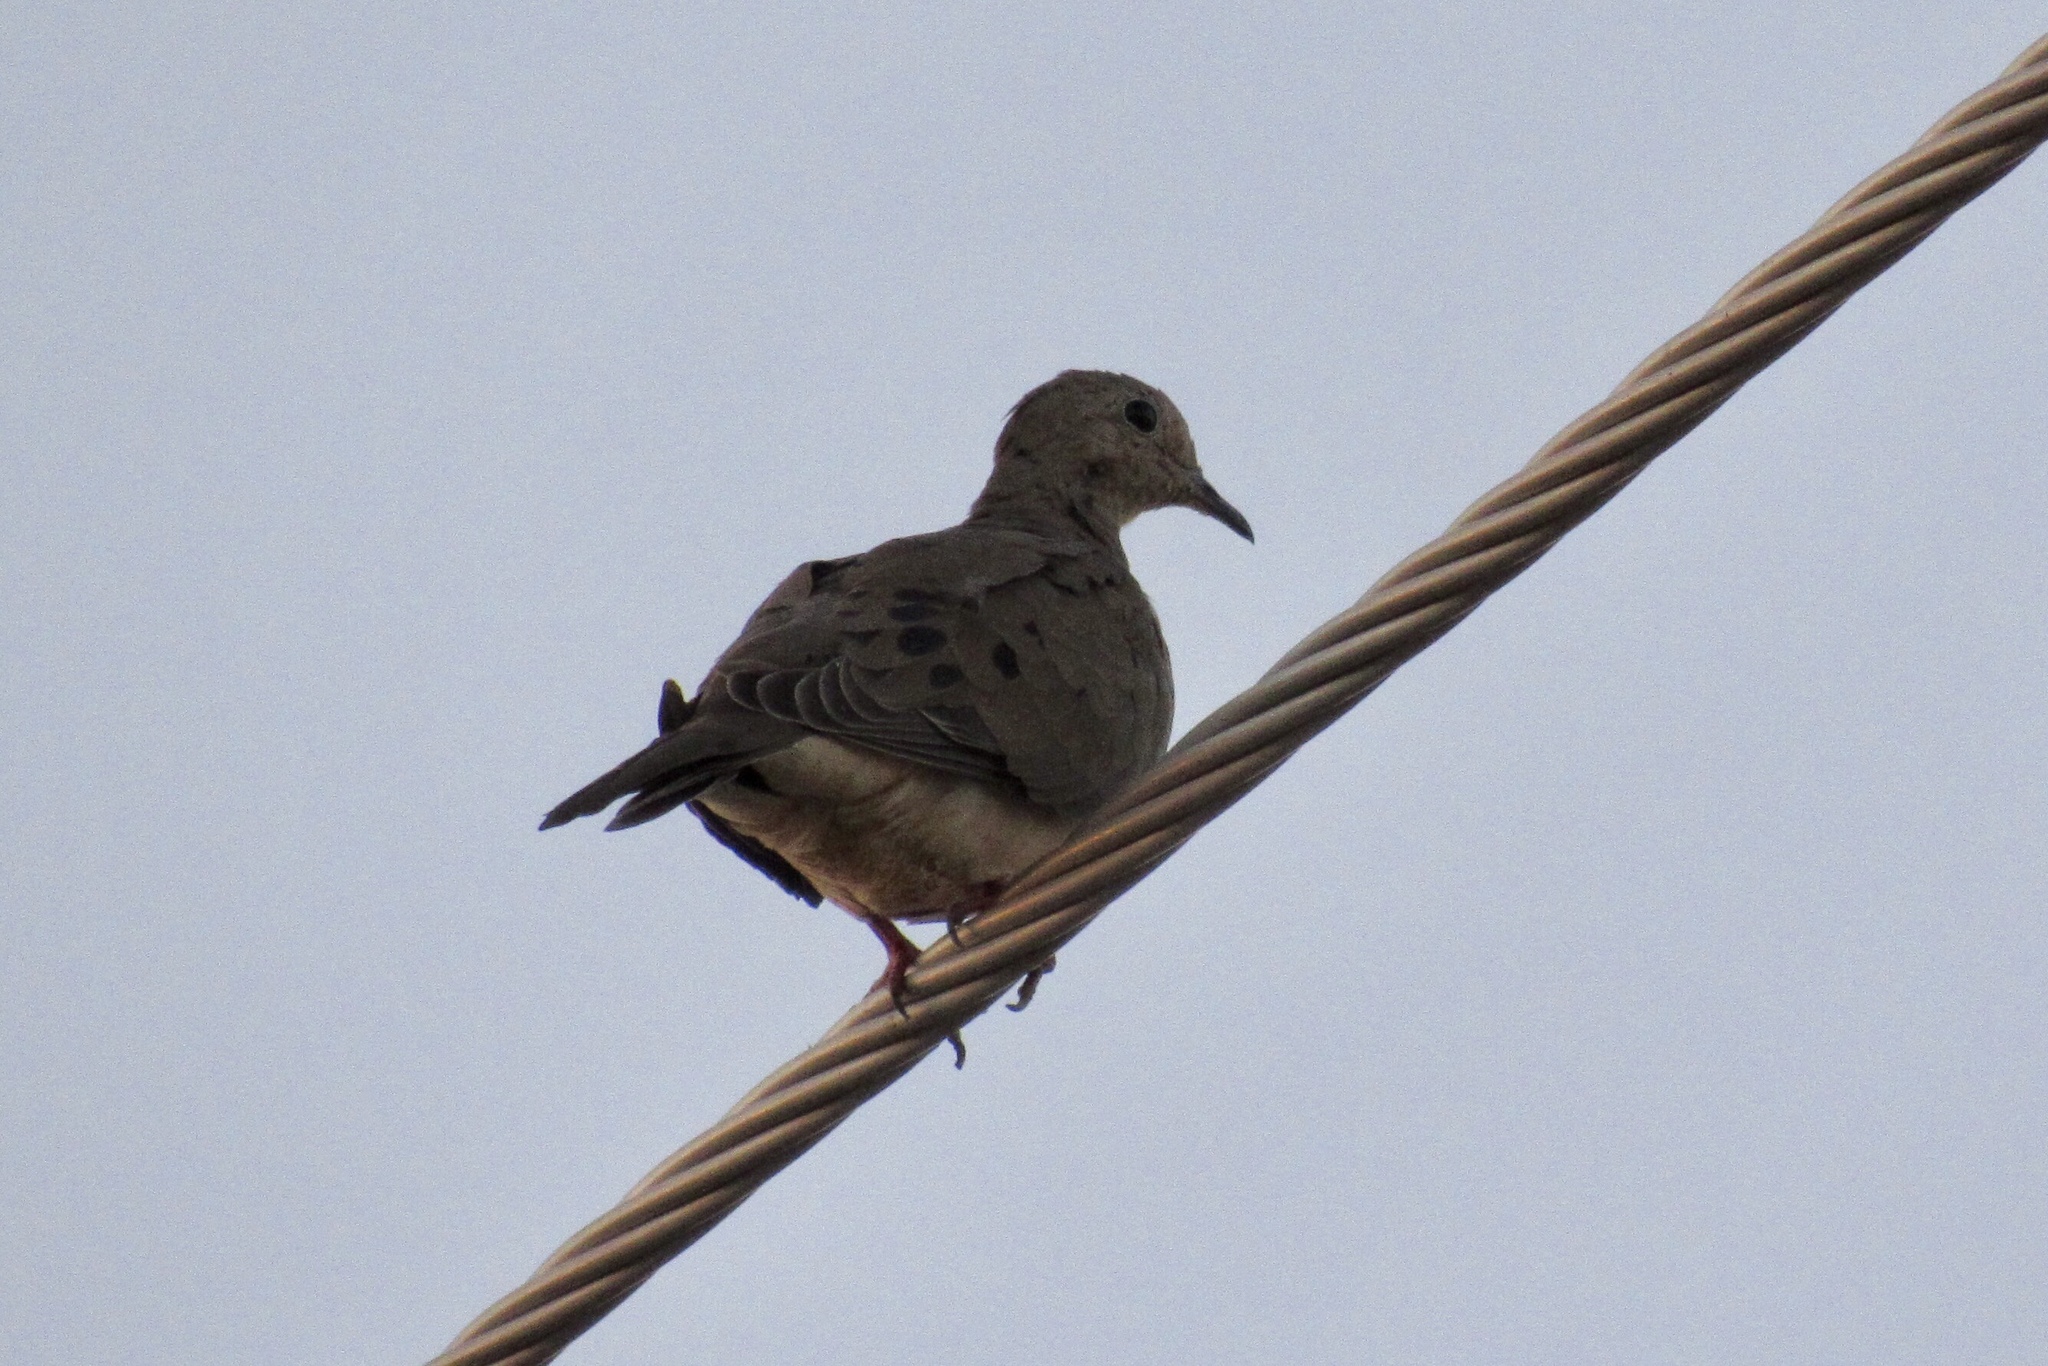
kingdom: Animalia
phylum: Chordata
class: Aves
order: Columbiformes
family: Columbidae
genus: Zenaida
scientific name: Zenaida macroura
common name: Mourning dove
